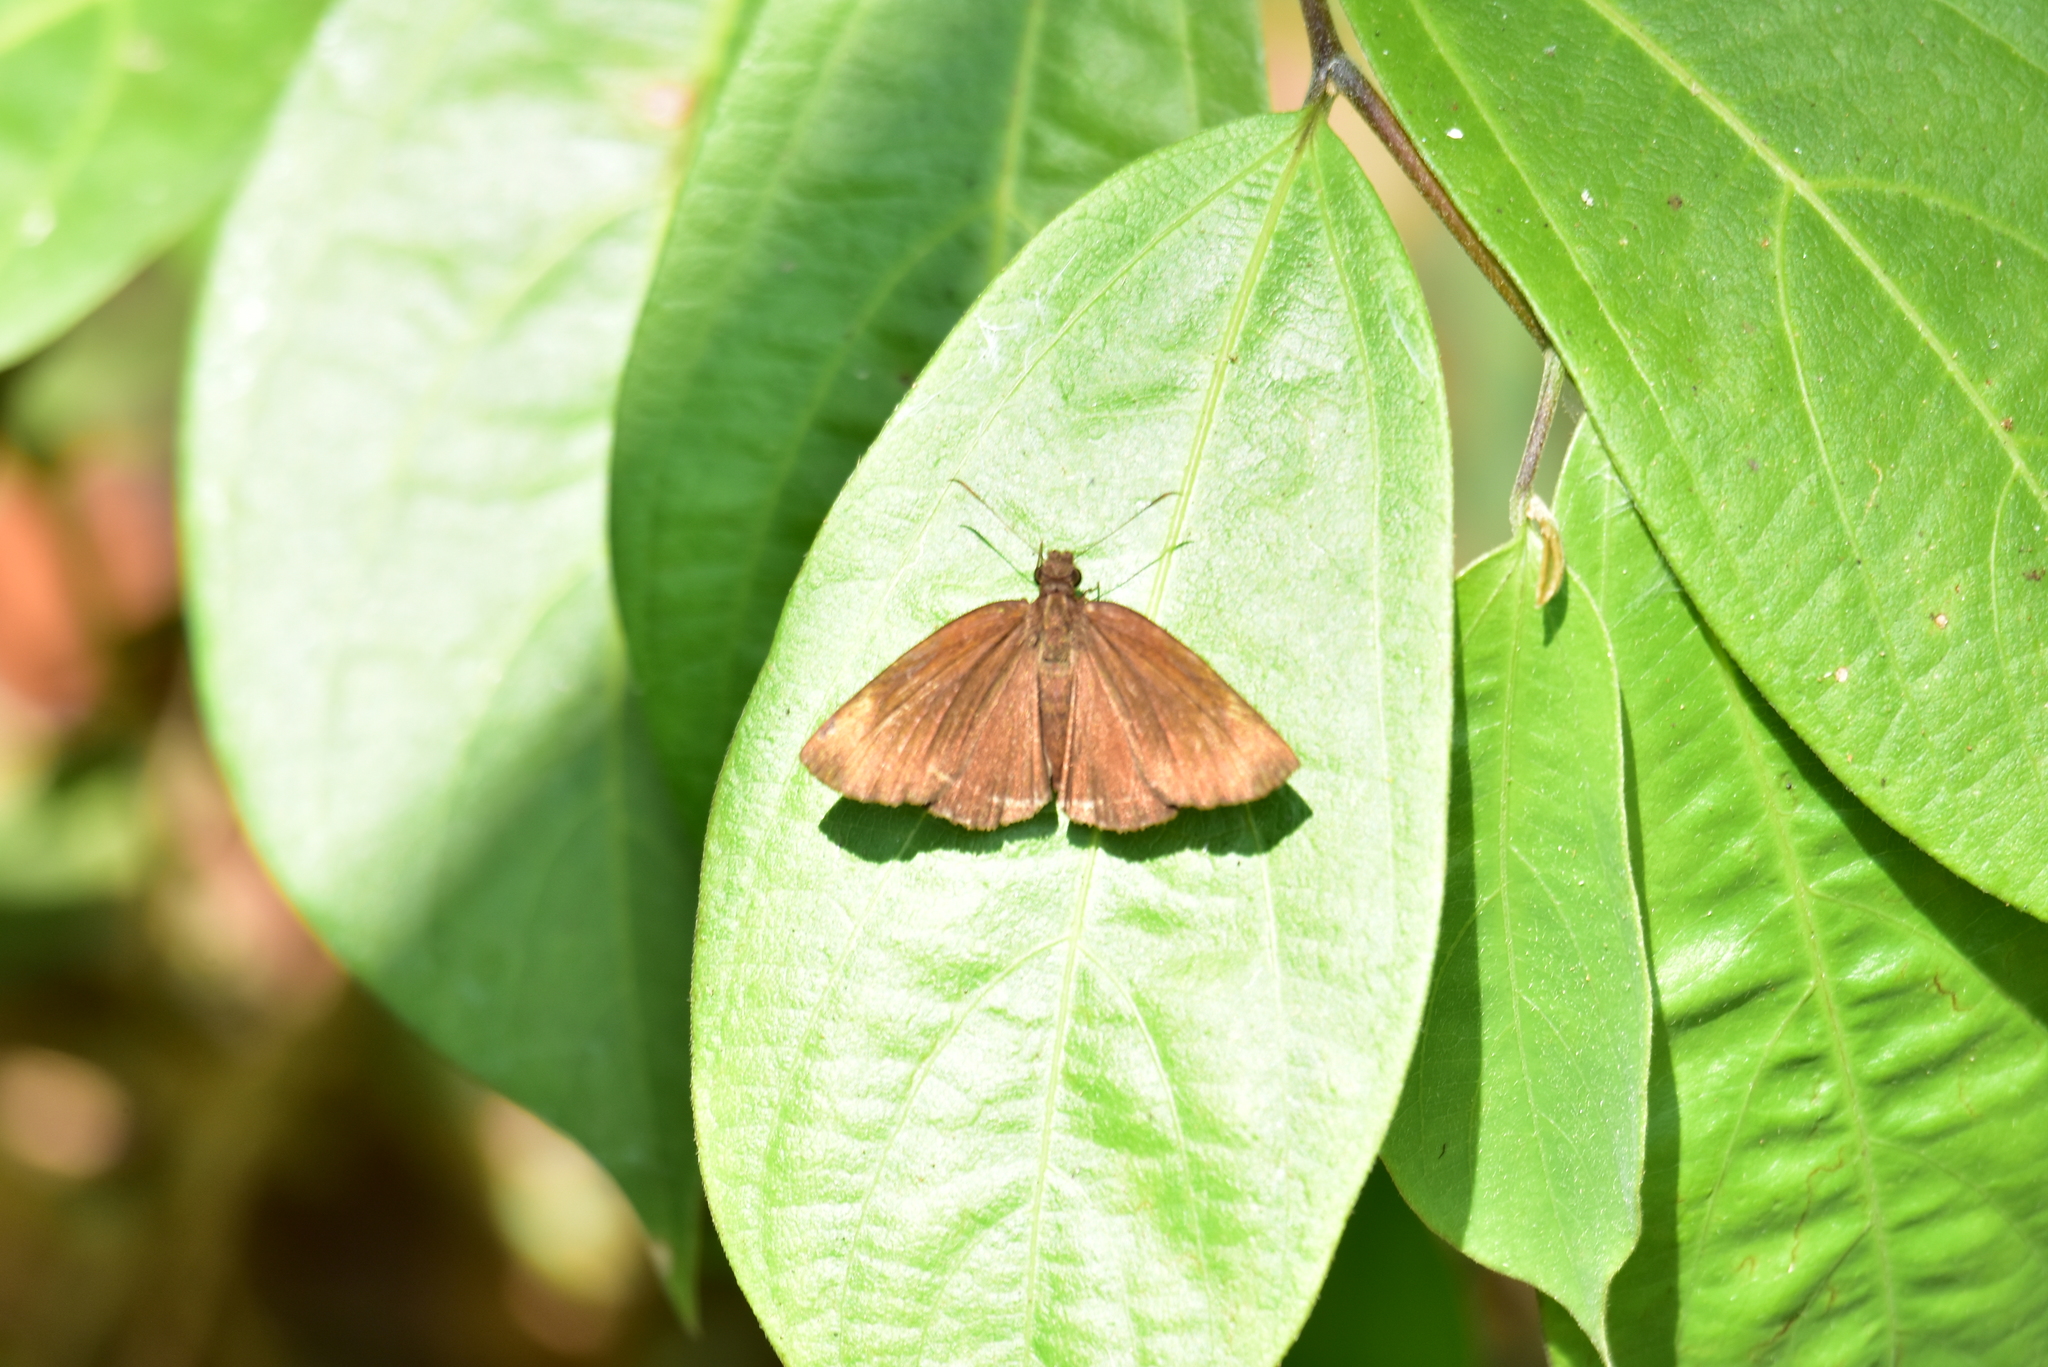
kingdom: Animalia
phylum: Arthropoda
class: Insecta
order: Lepidoptera
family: Hesperiidae
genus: Psolos
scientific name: Psolos fuligo
